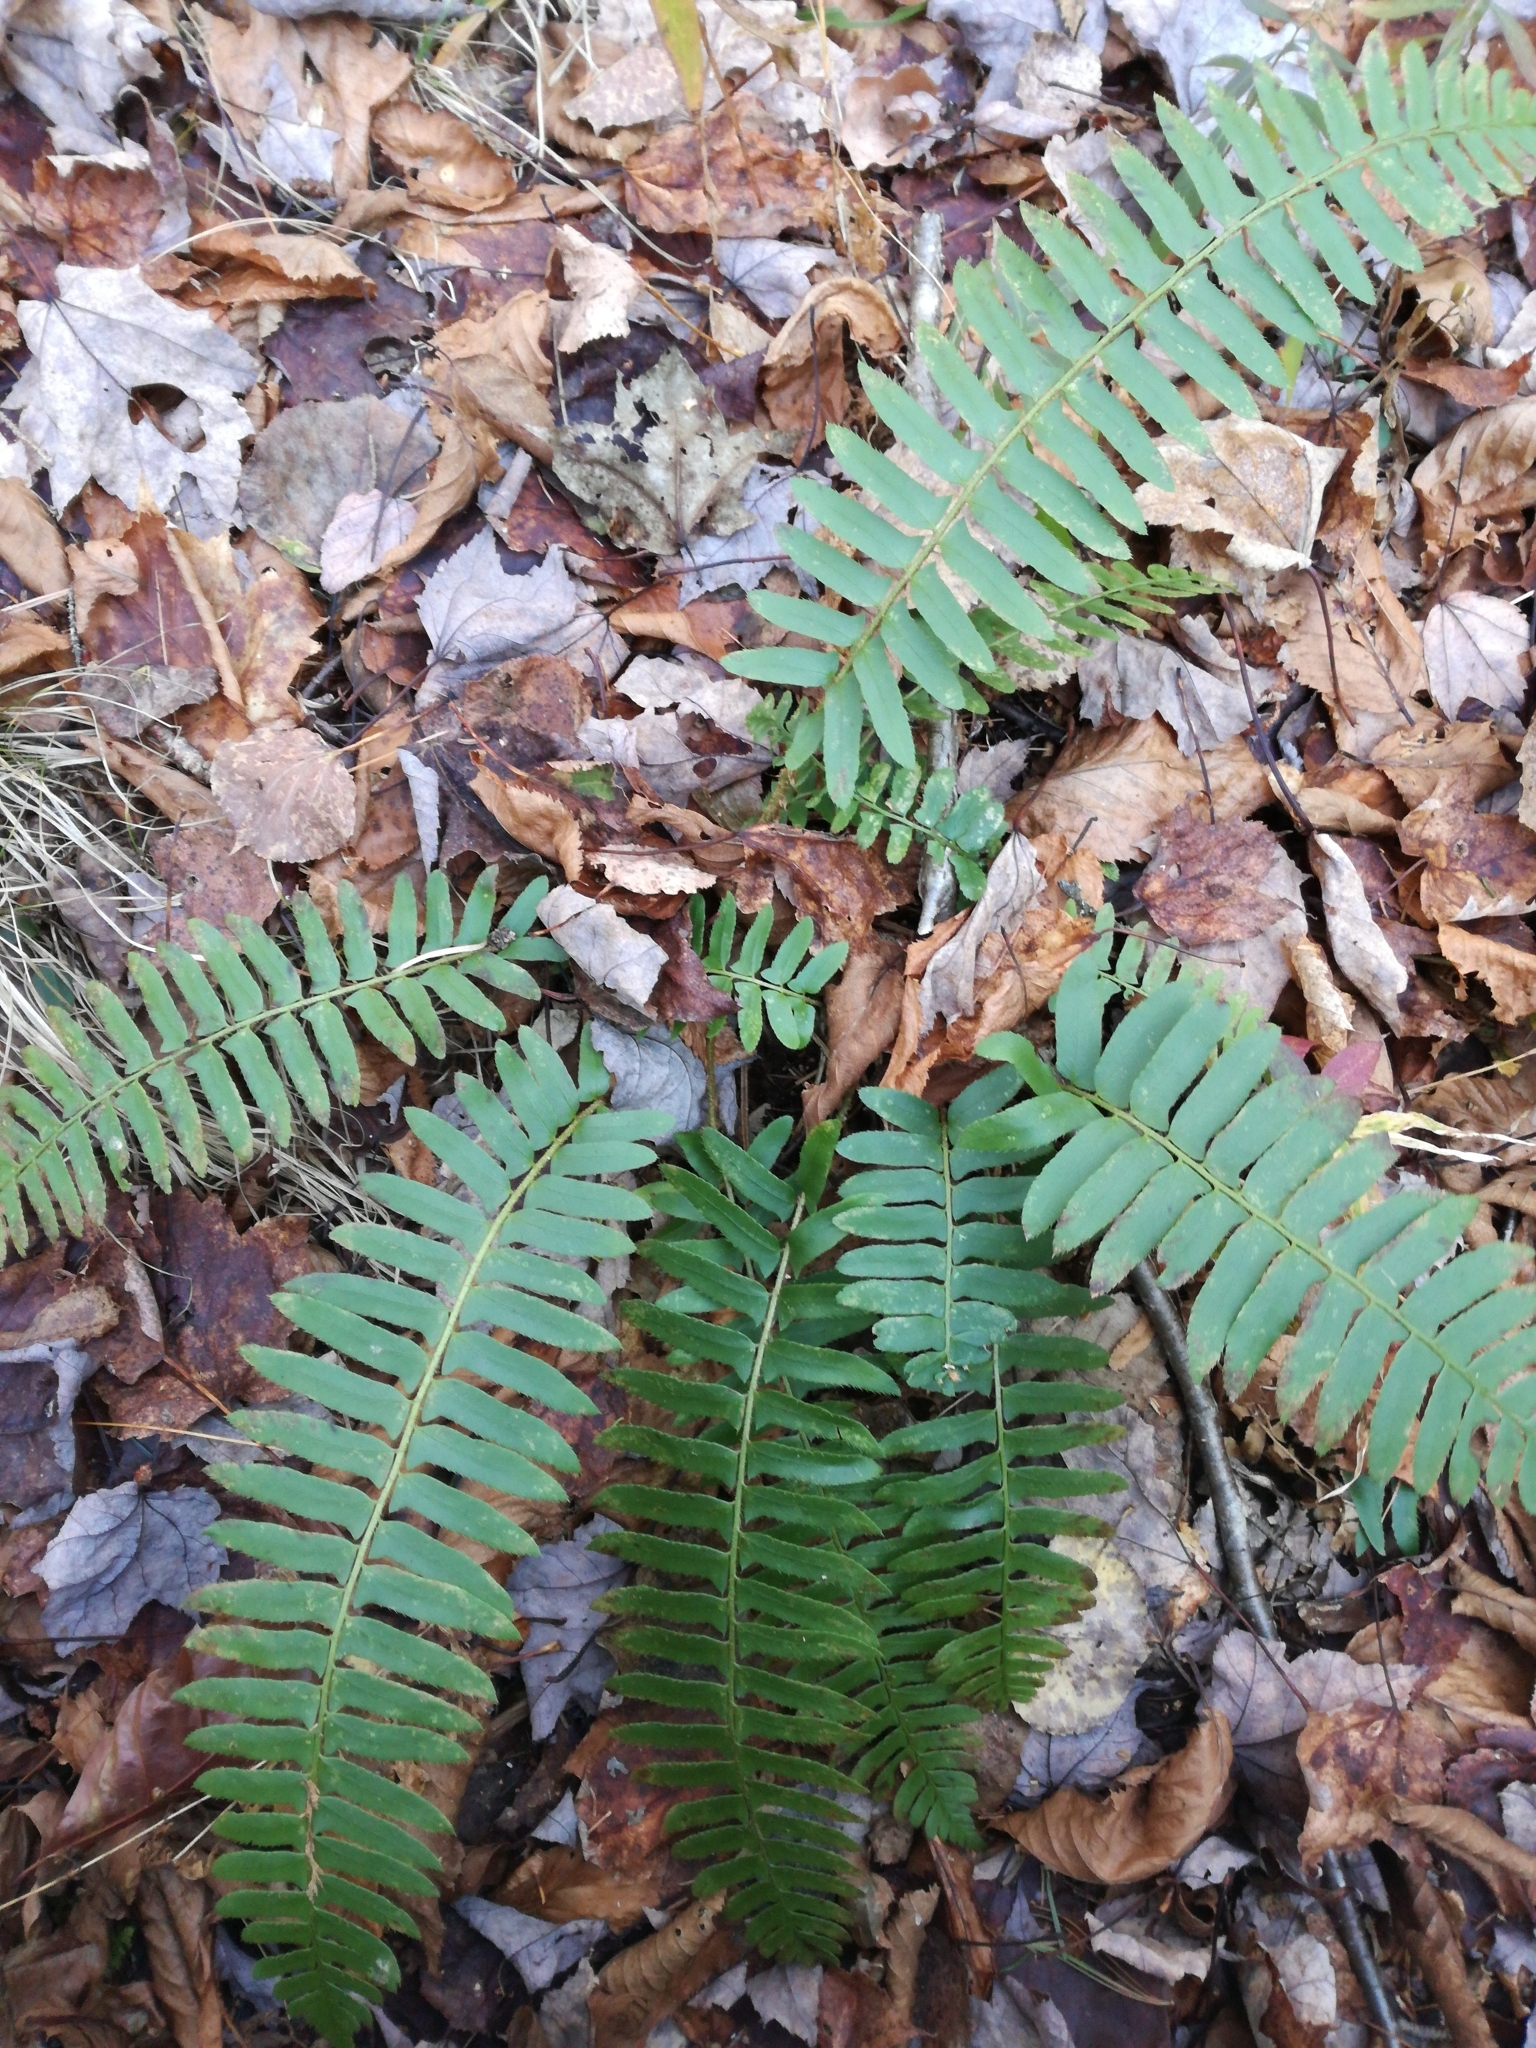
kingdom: Plantae
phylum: Tracheophyta
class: Polypodiopsida
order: Polypodiales
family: Dryopteridaceae
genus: Polystichum
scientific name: Polystichum acrostichoides
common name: Christmas fern
